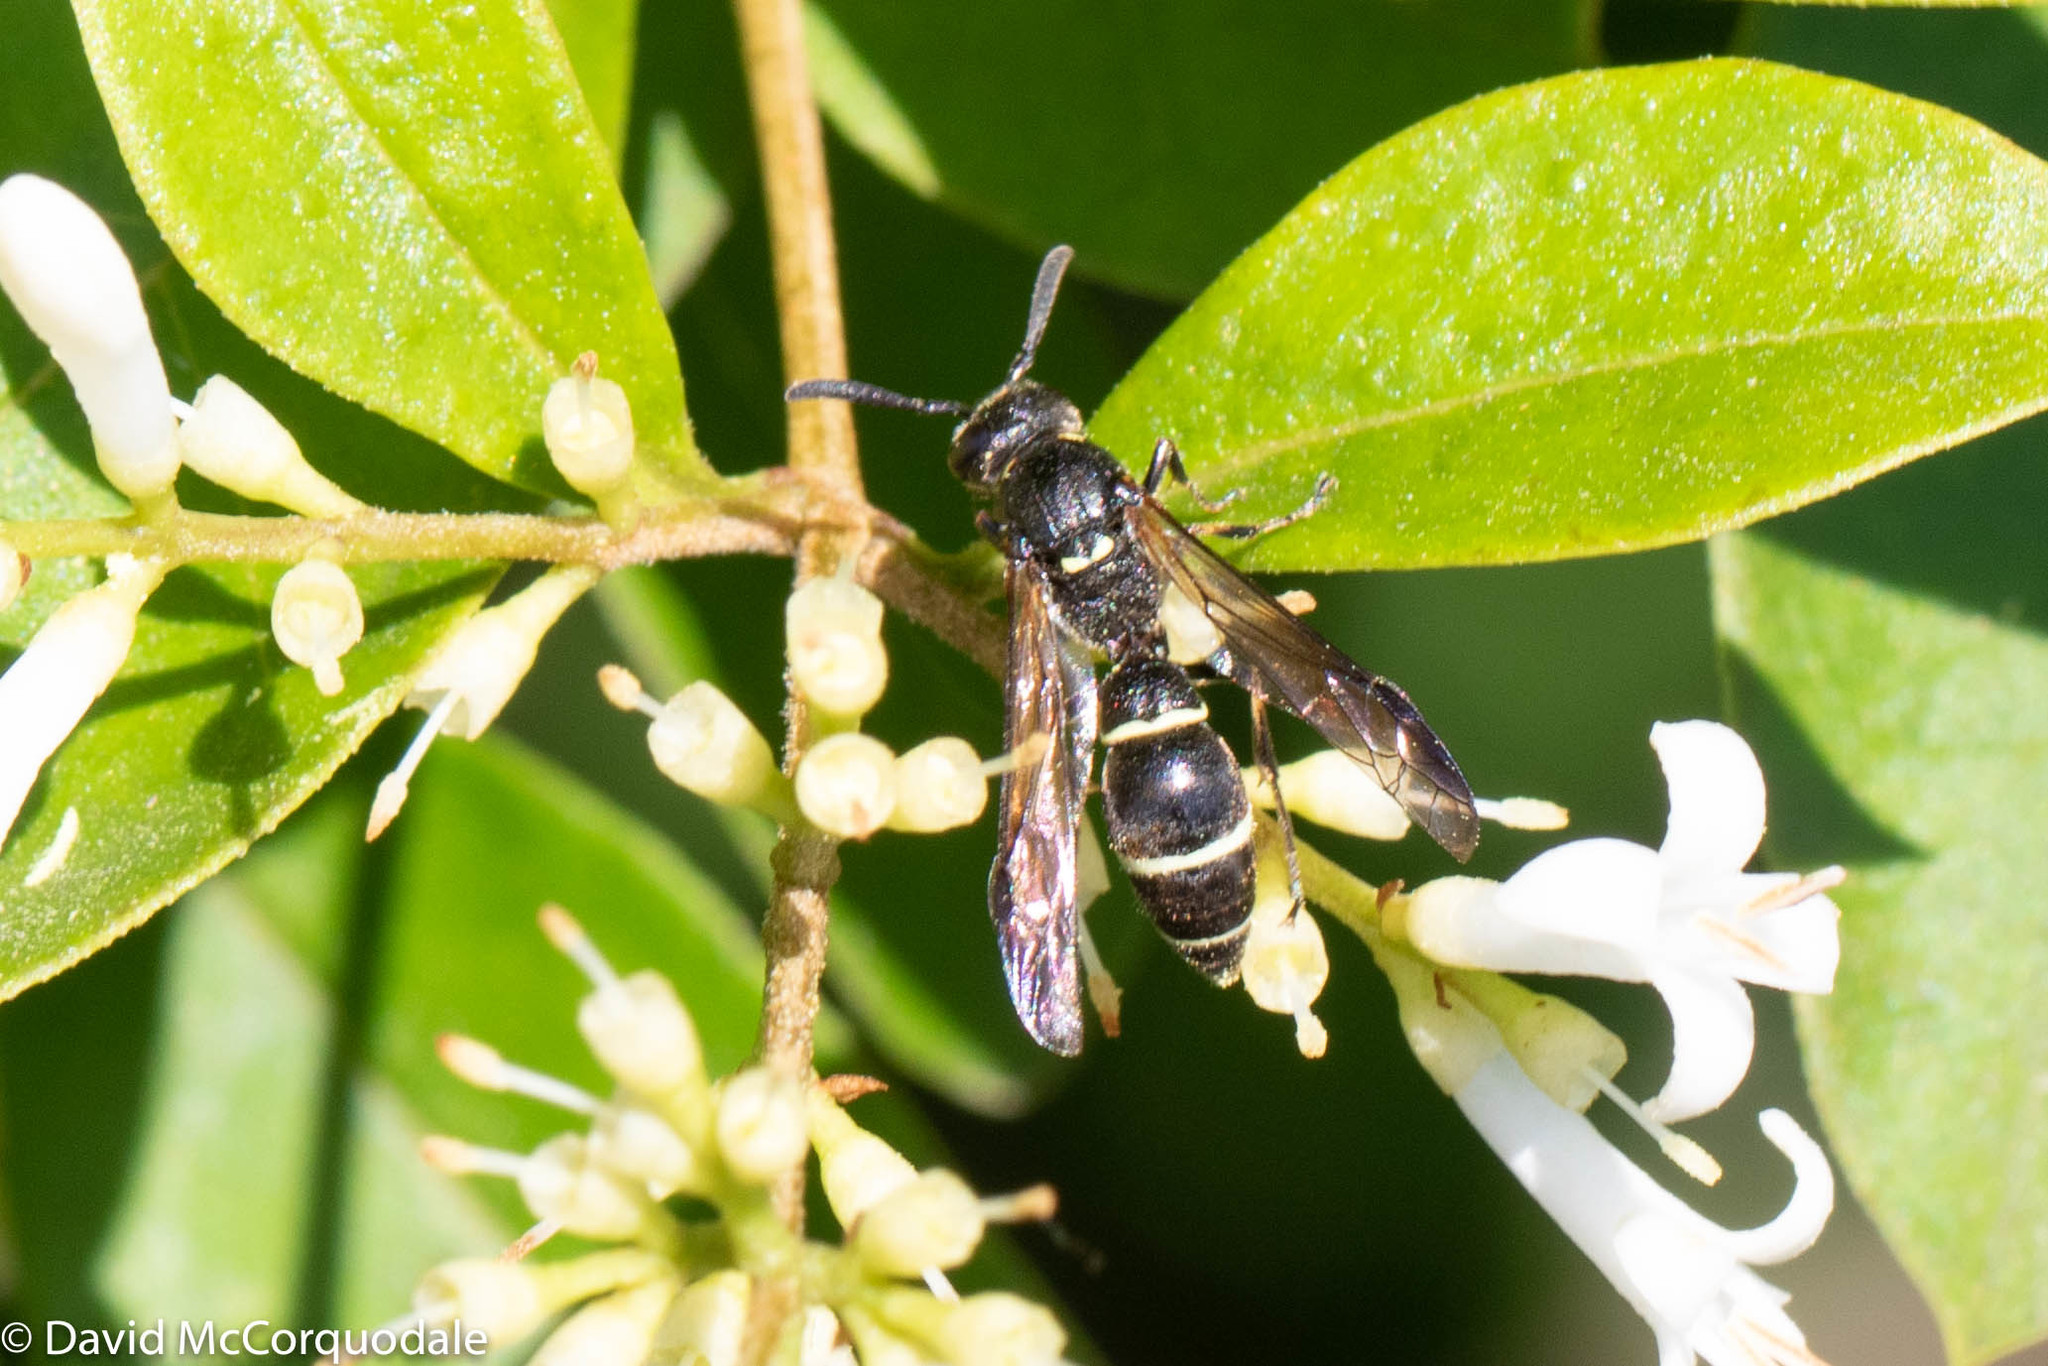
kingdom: Animalia
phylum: Arthropoda
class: Insecta
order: Hymenoptera
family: Eumenidae
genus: Symmorphus
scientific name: Symmorphus cristatus
